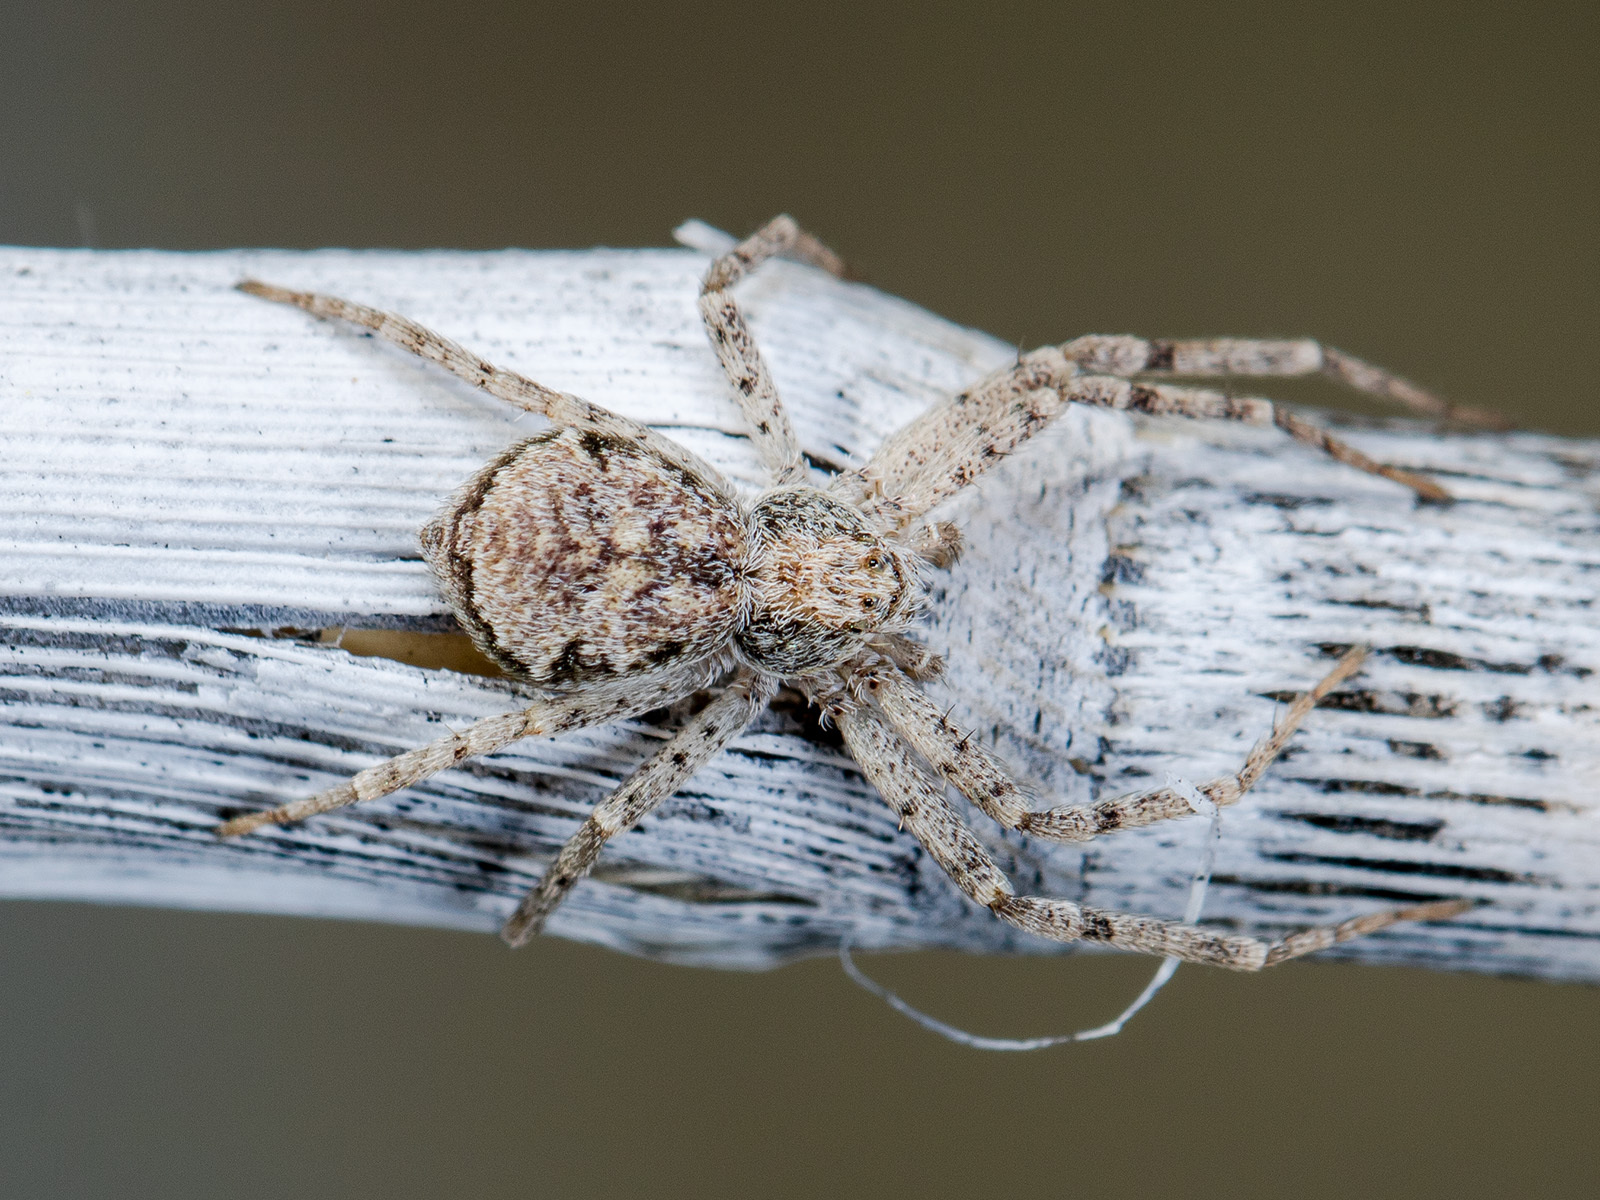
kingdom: Animalia
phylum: Arthropoda
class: Arachnida
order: Araneae
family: Philodromidae
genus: Rhysodromus
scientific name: Rhysodromus pictus
